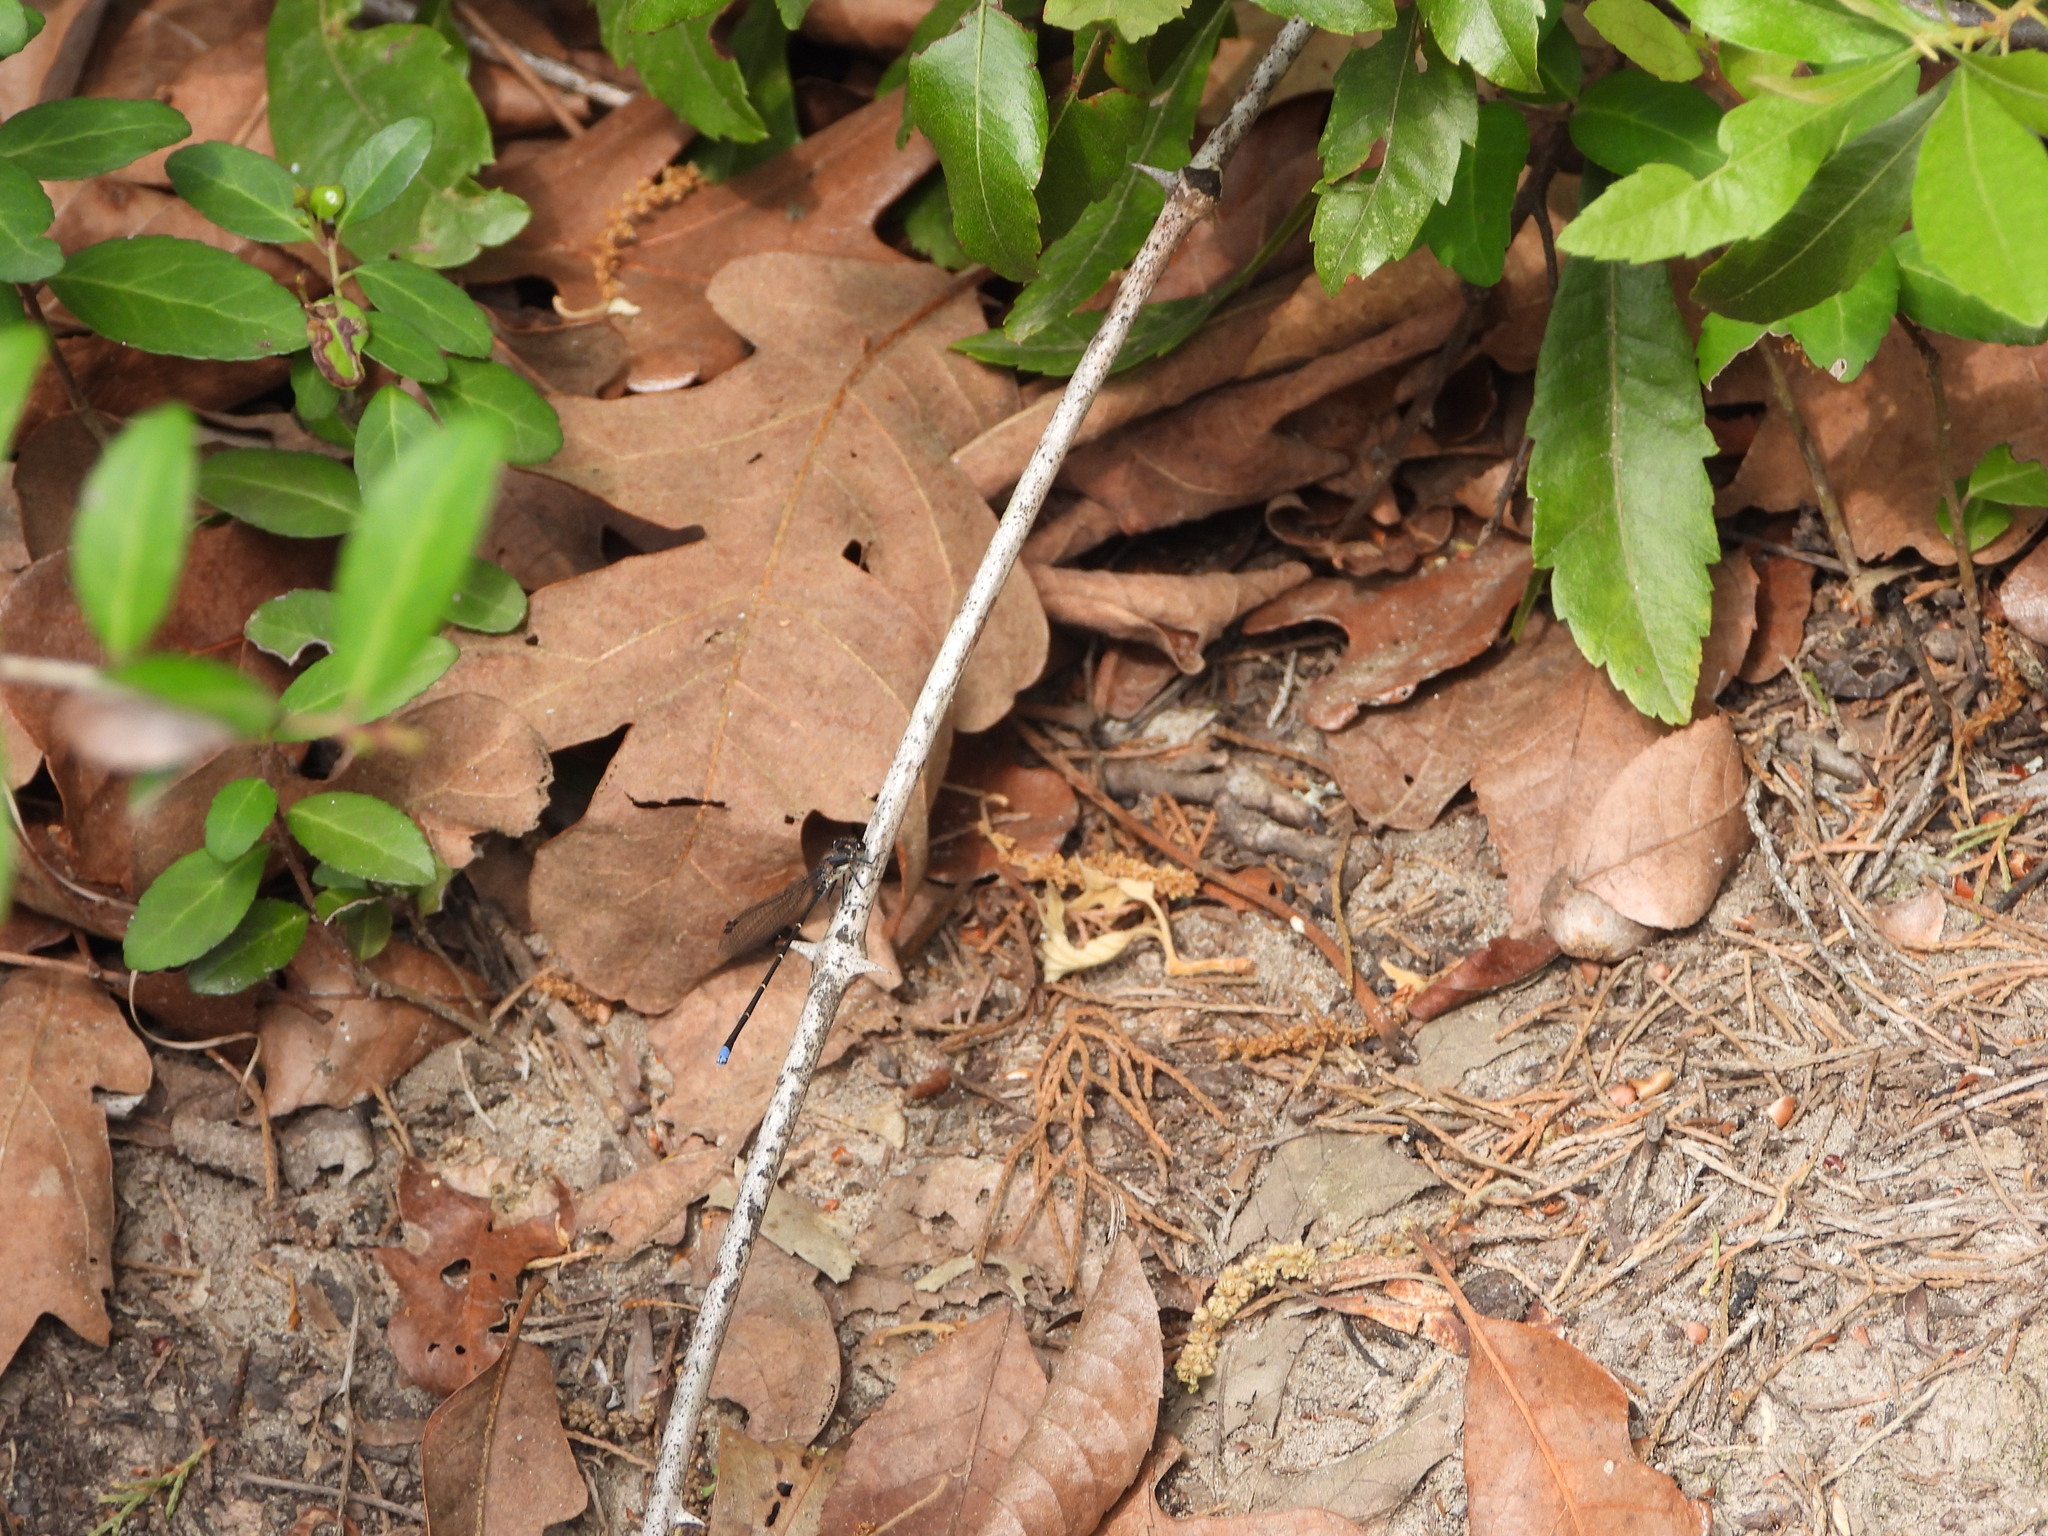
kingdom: Animalia
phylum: Arthropoda
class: Insecta
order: Odonata
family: Coenagrionidae
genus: Argia
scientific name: Argia tibialis
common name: Blue-tipped dancer
